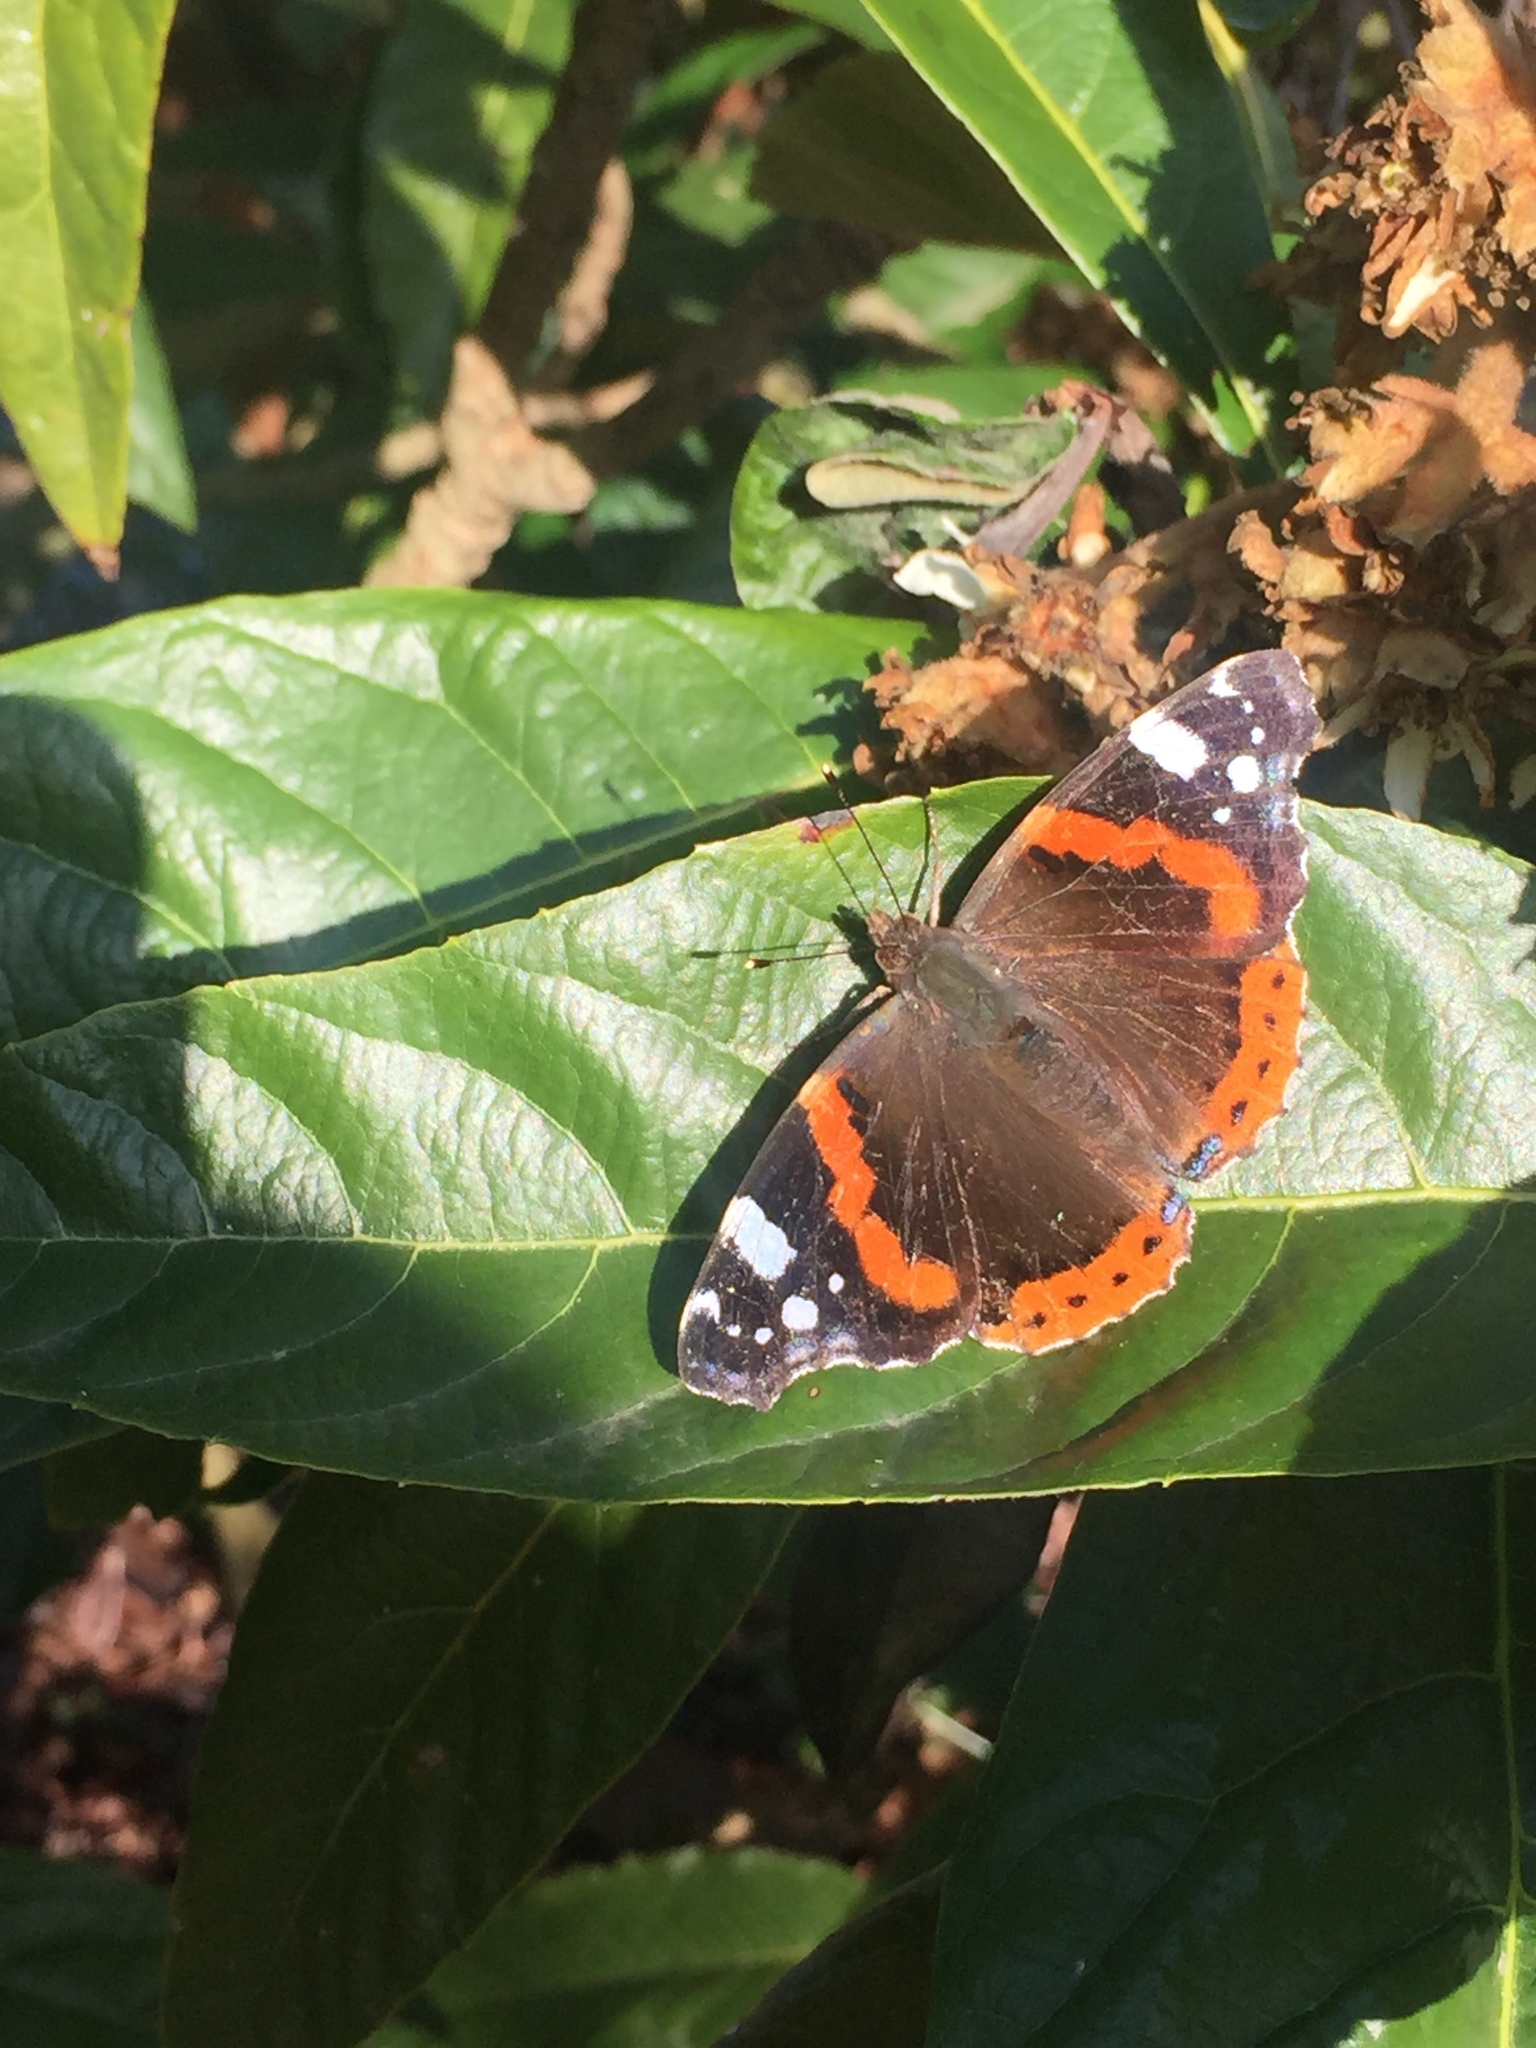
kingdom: Animalia
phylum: Arthropoda
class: Insecta
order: Lepidoptera
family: Nymphalidae
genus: Vanessa
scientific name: Vanessa atalanta
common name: Red admiral
